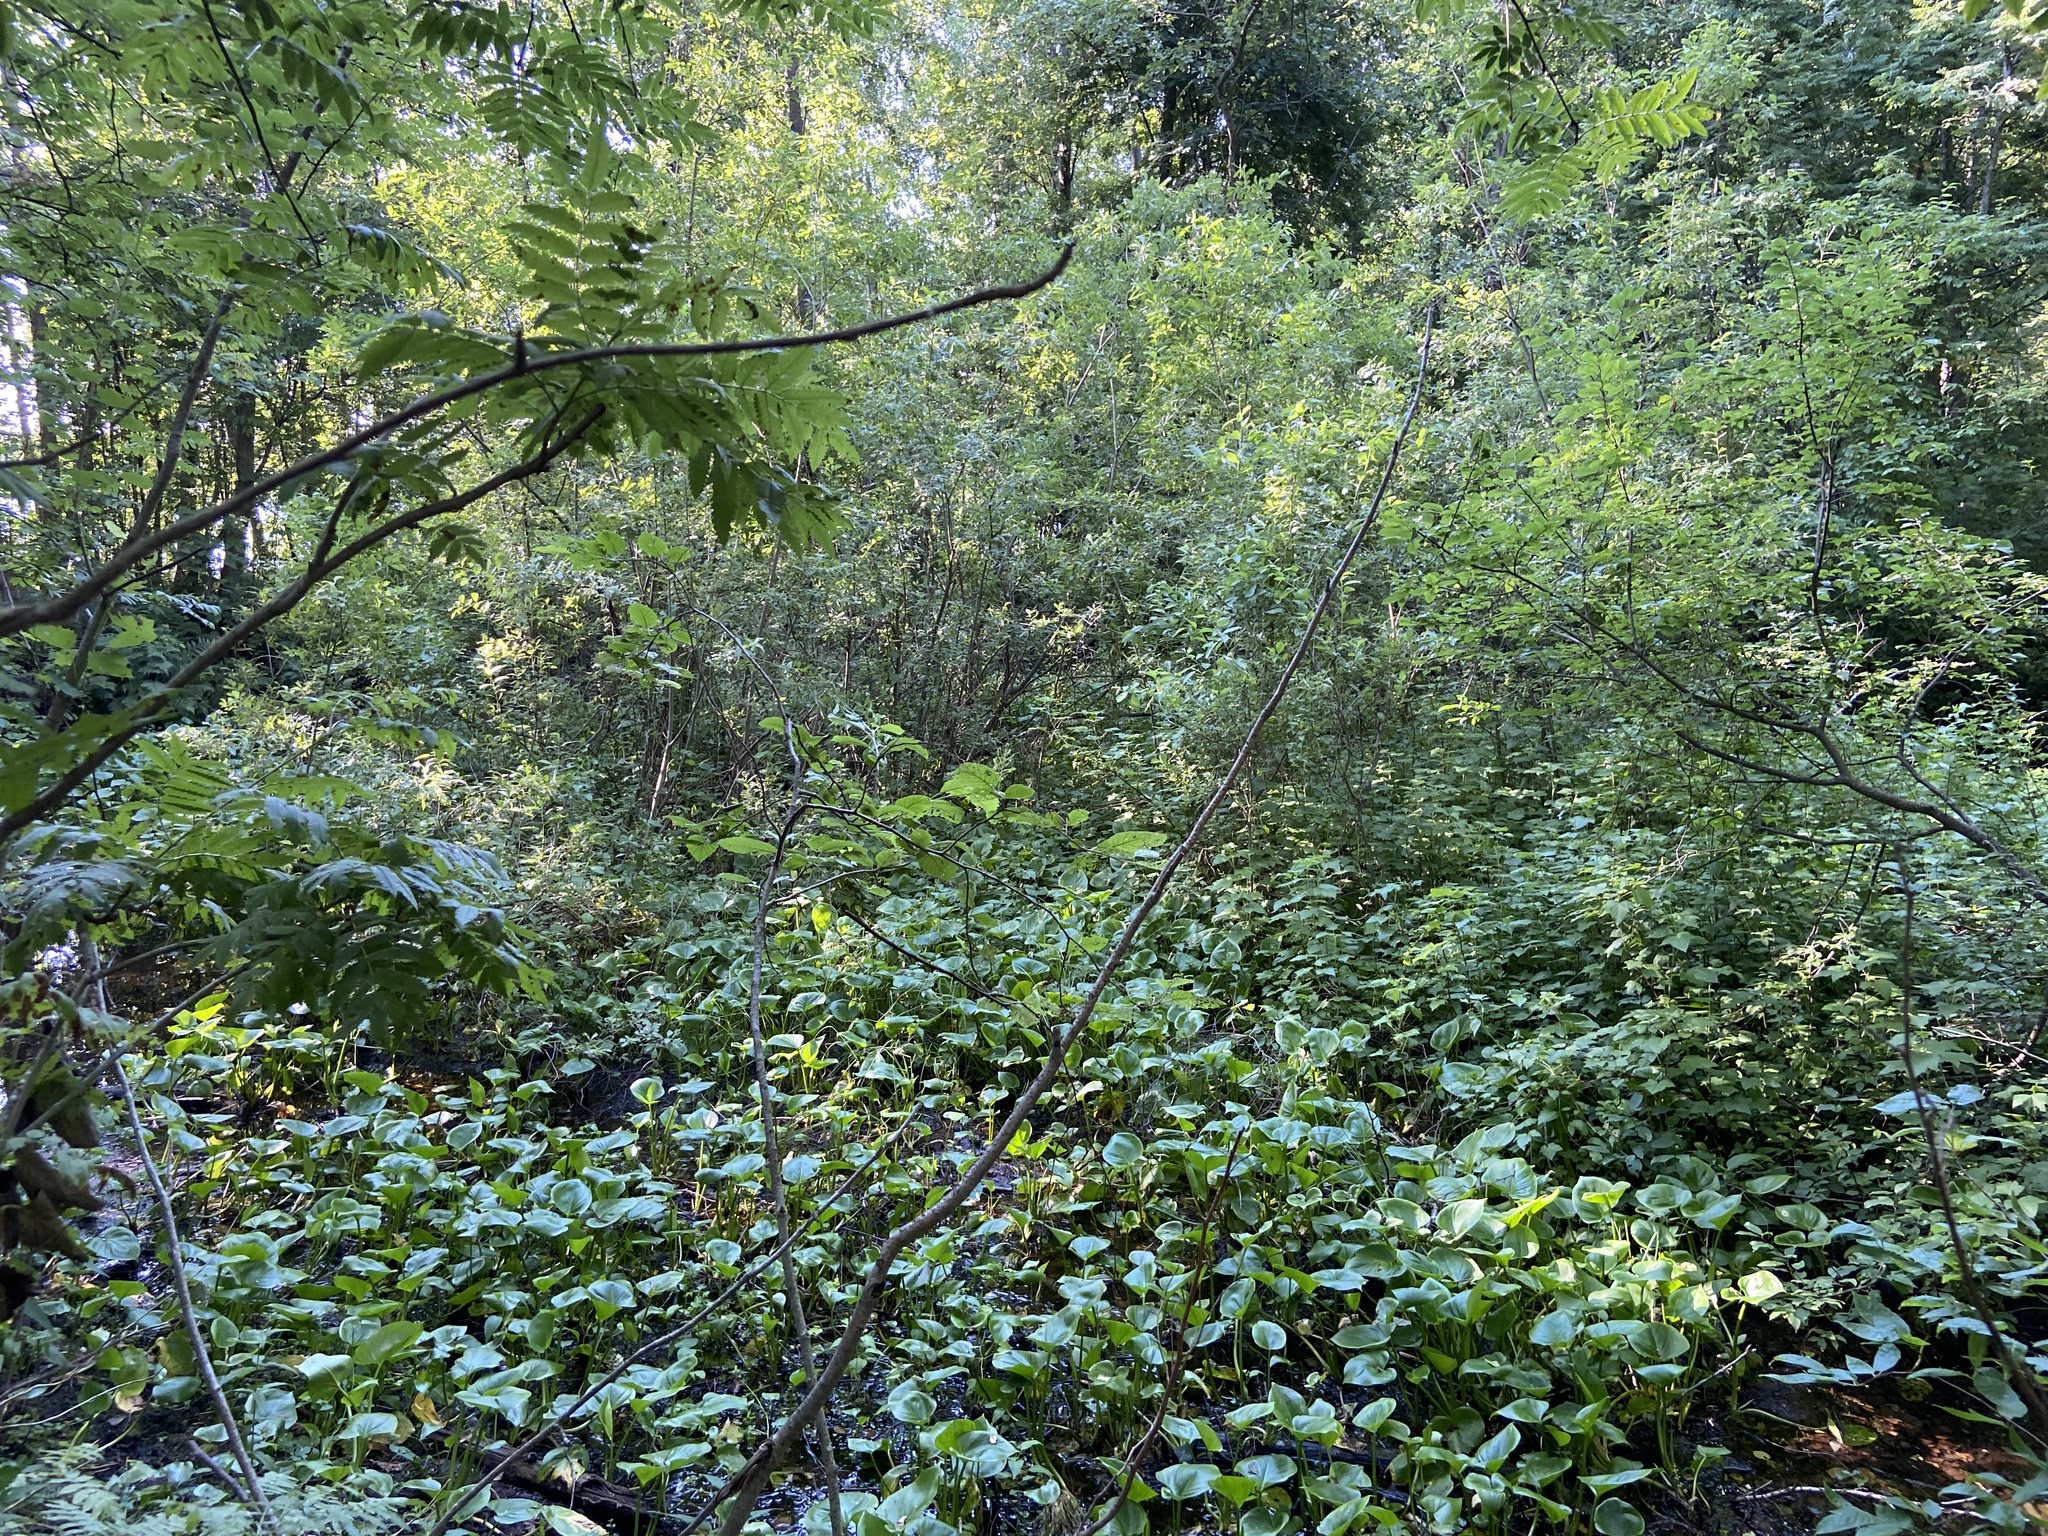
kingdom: Plantae
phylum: Tracheophyta
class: Liliopsida
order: Alismatales
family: Araceae
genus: Calla
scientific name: Calla palustris
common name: Bog arum
